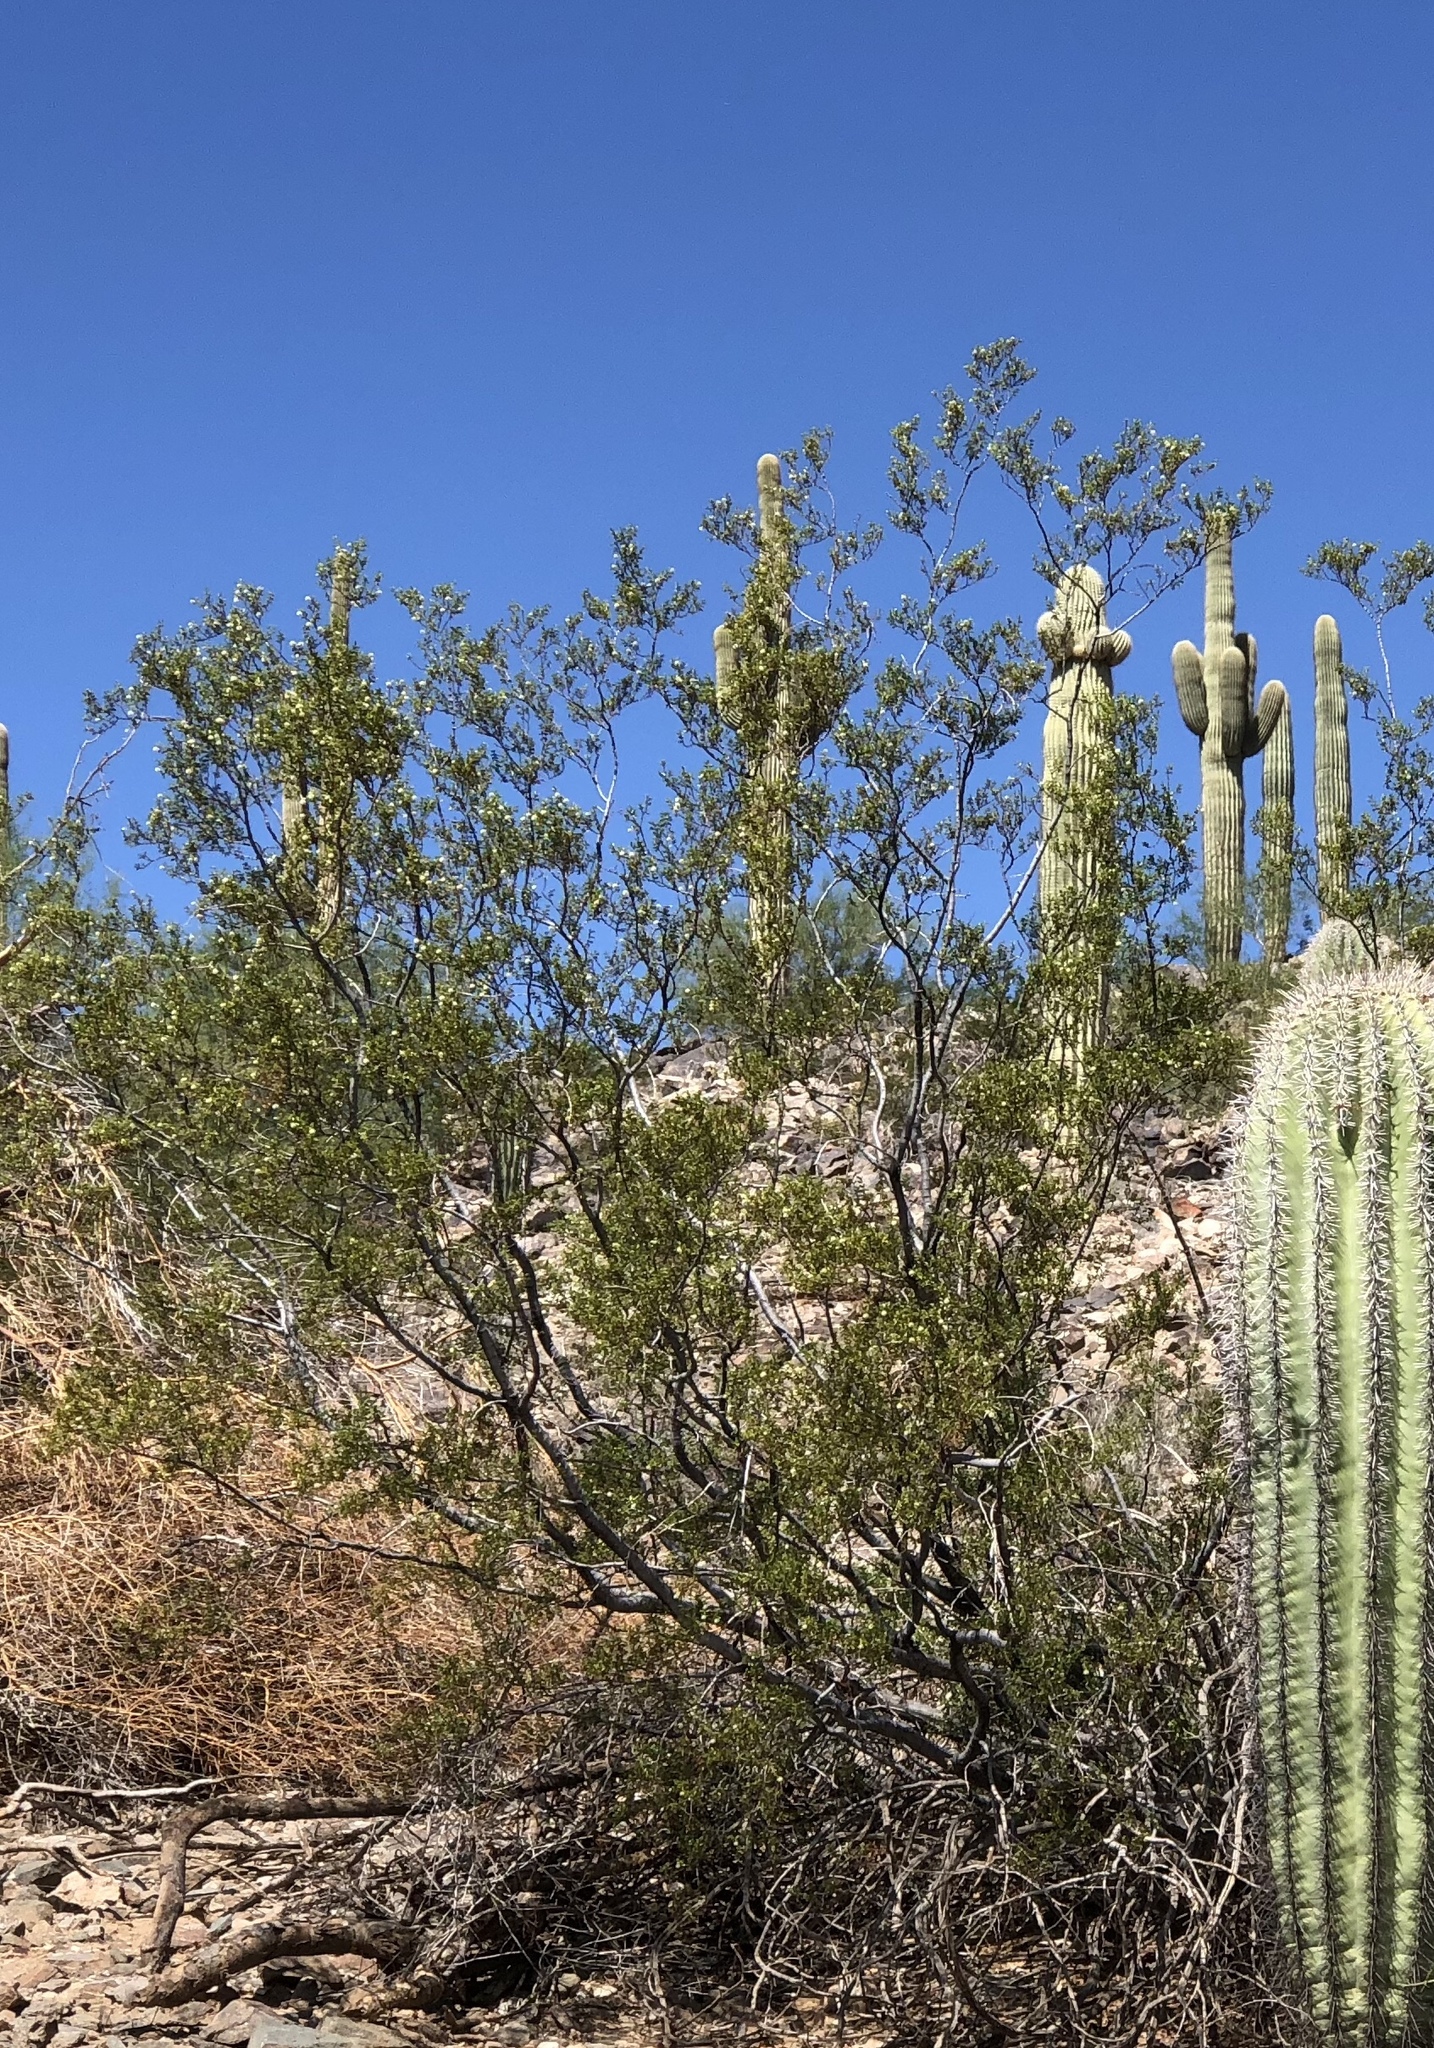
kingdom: Plantae
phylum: Tracheophyta
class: Magnoliopsida
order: Zygophyllales
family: Zygophyllaceae
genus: Larrea
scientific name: Larrea tridentata
